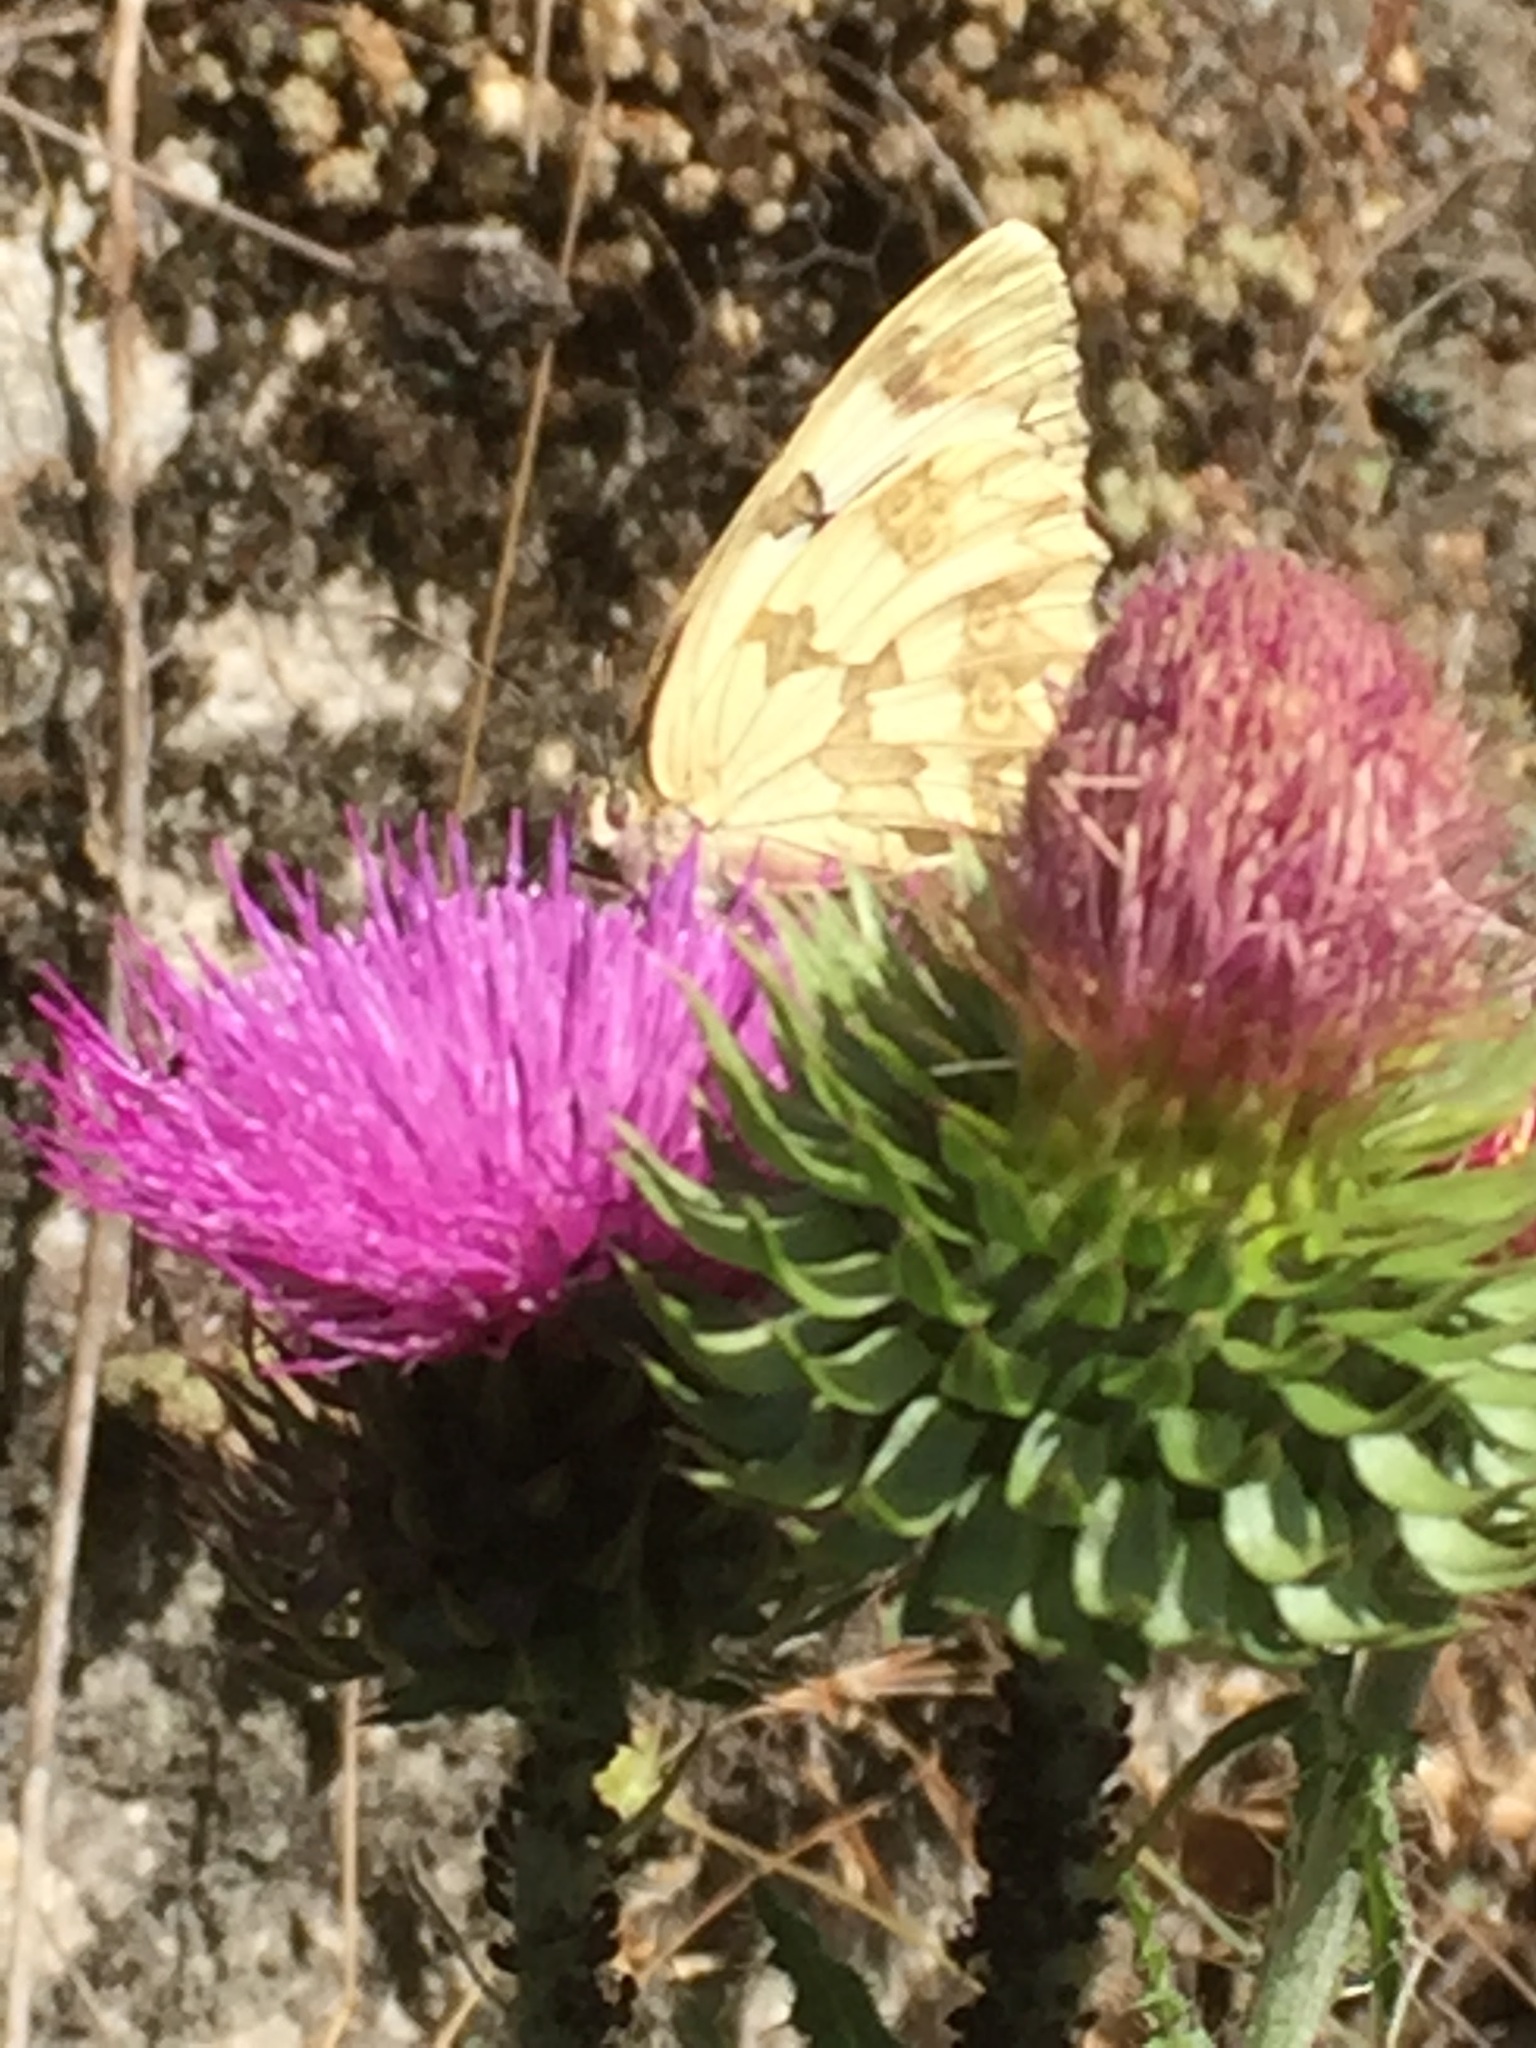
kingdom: Animalia
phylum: Arthropoda
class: Insecta
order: Lepidoptera
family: Nymphalidae
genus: Melanargia
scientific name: Melanargia lachesis
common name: Iberian marbled white
